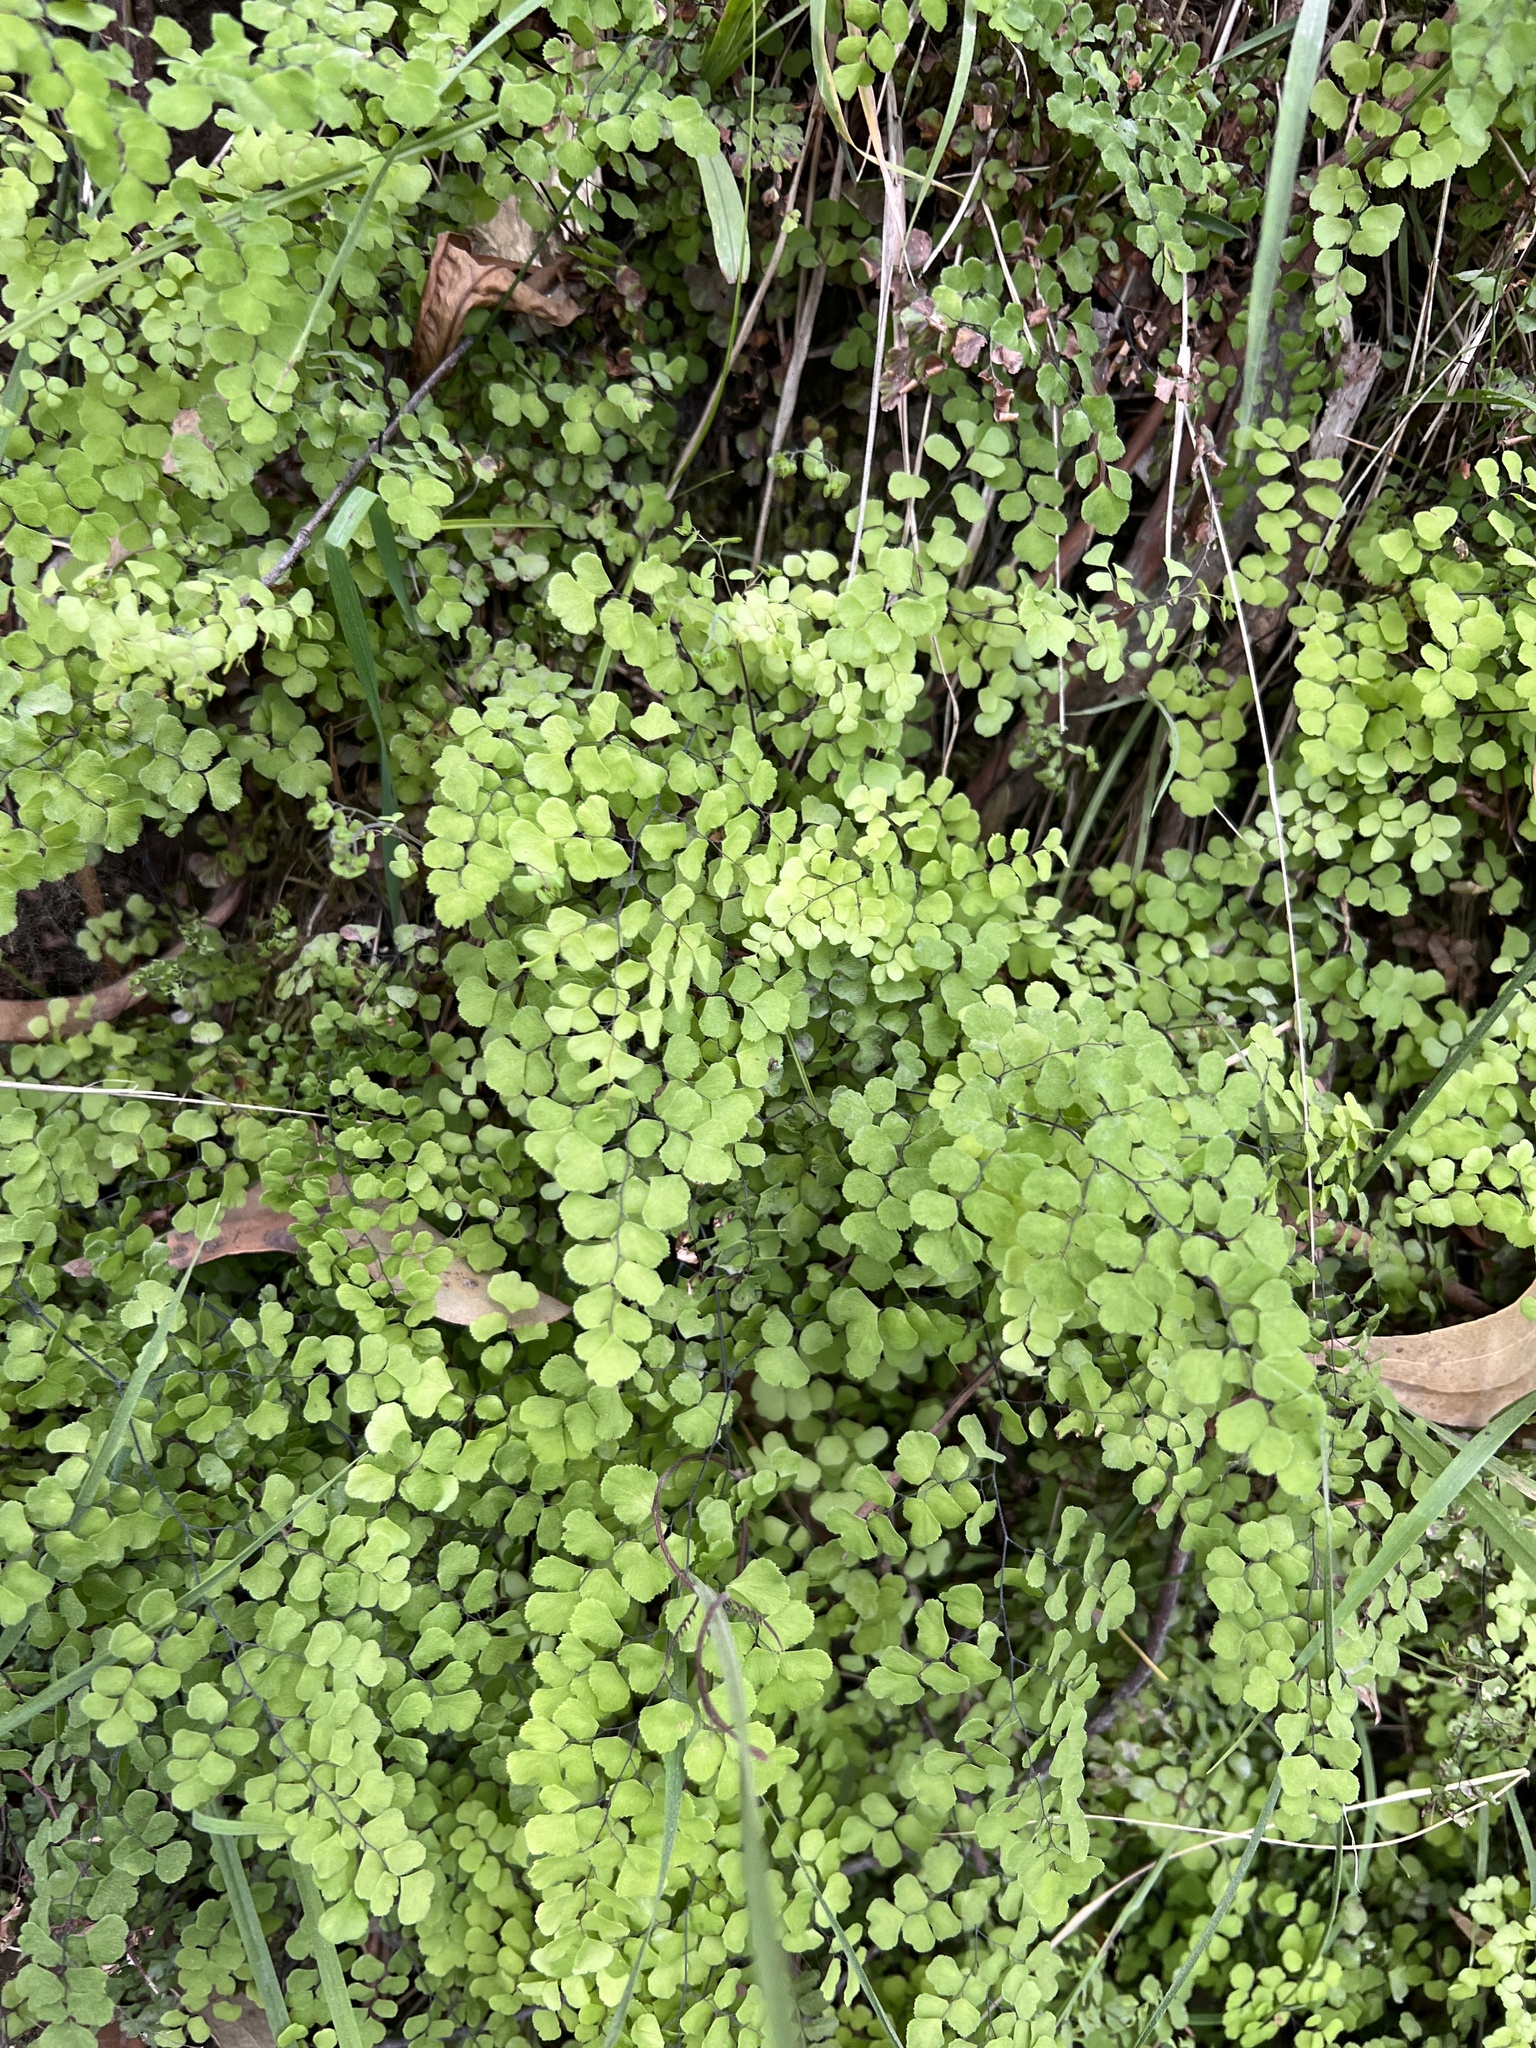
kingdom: Plantae
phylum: Tracheophyta
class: Polypodiopsida
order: Polypodiales
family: Pteridaceae
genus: Adiantum
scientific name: Adiantum aethiopicum
